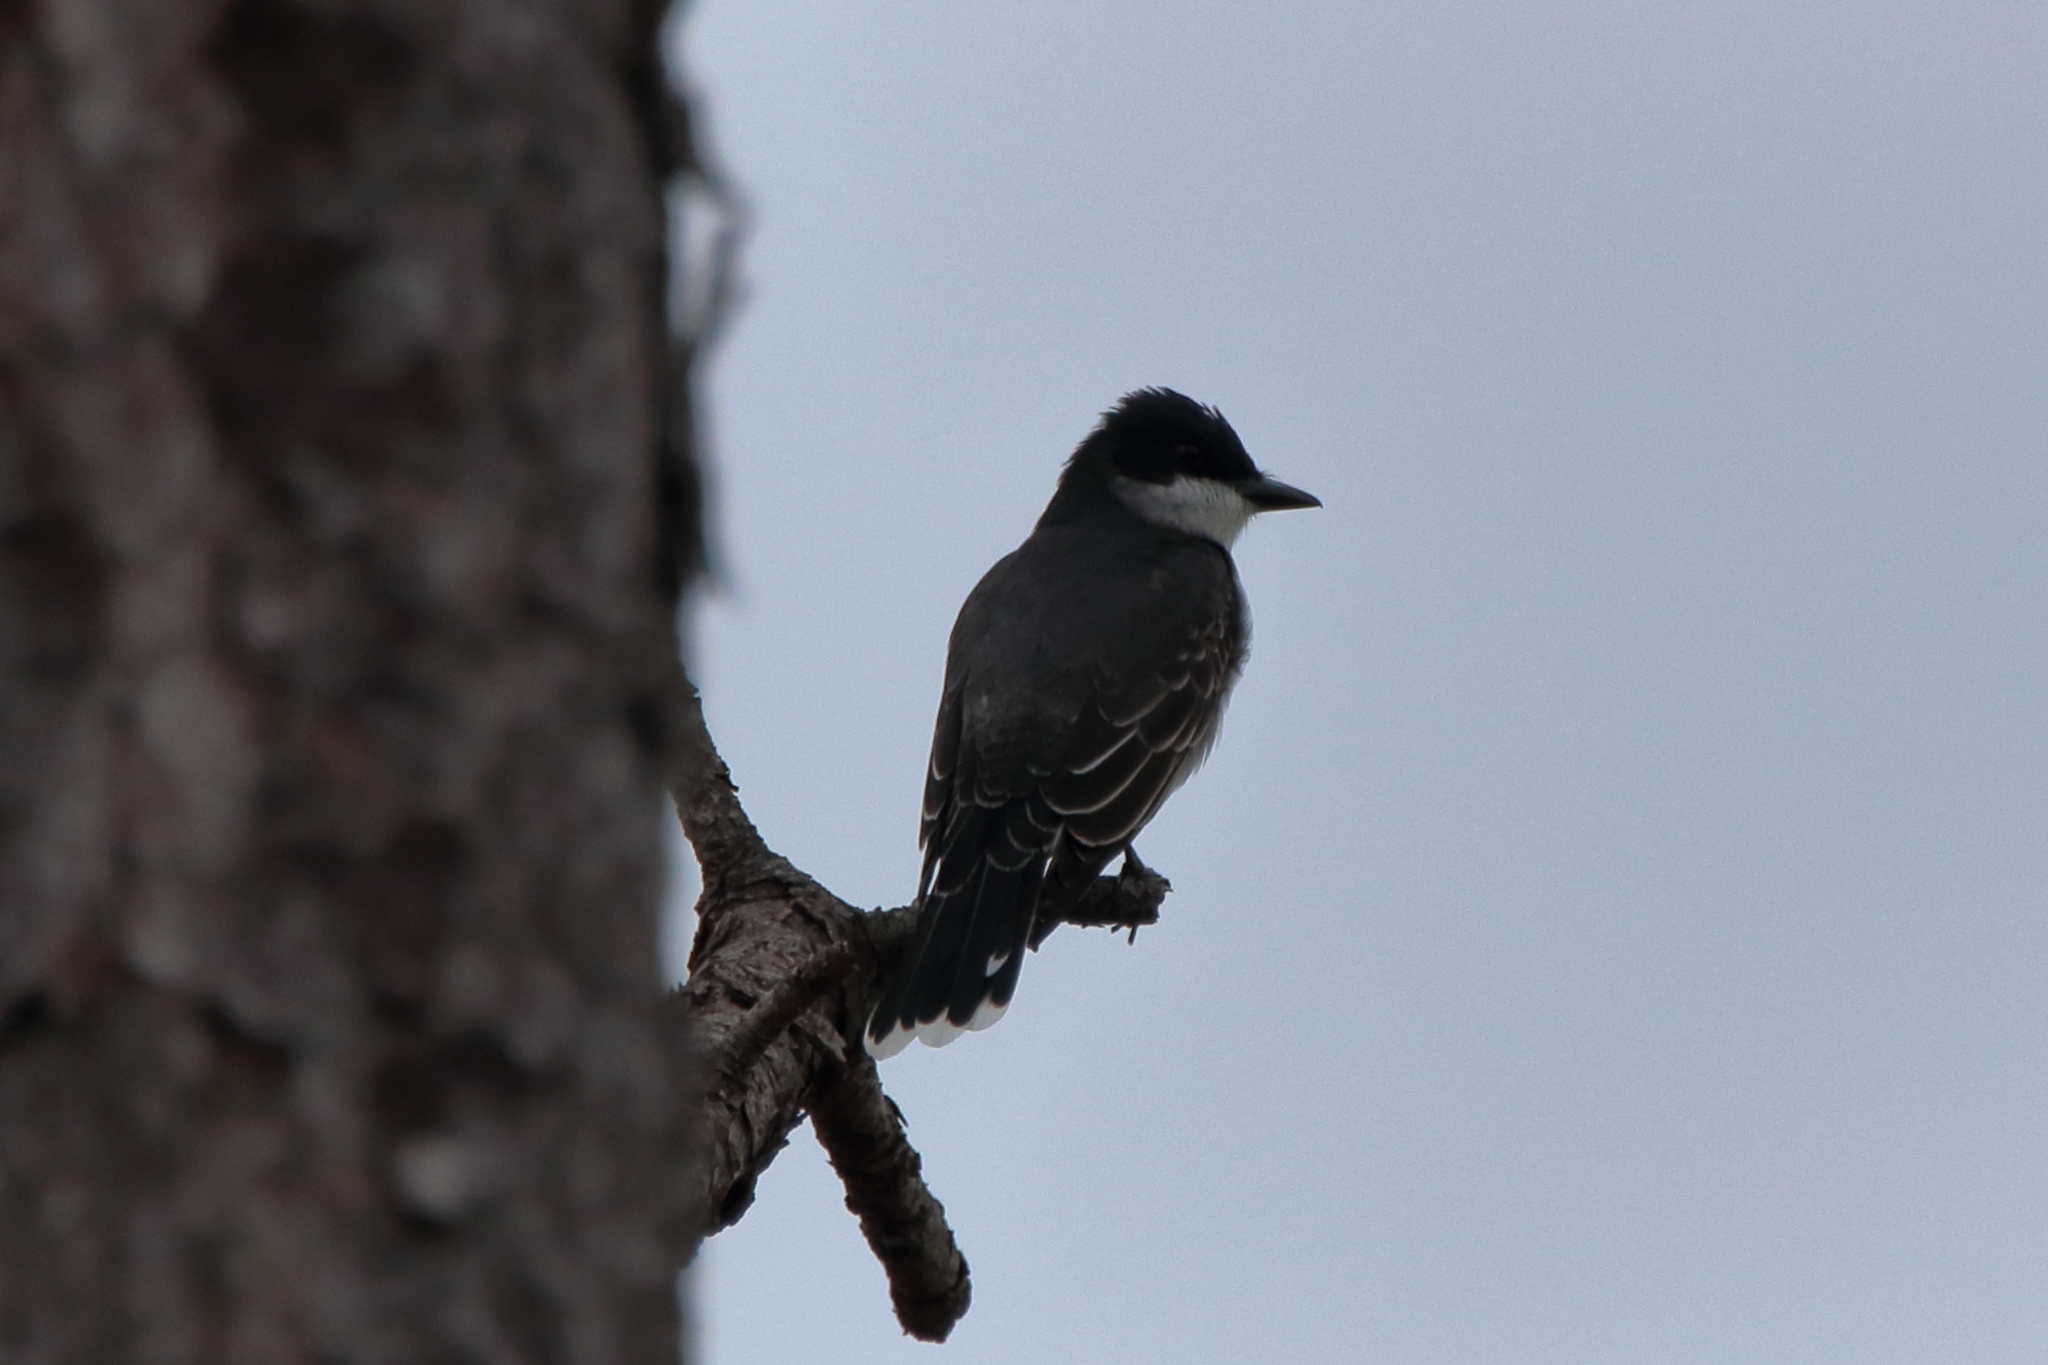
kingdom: Animalia
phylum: Chordata
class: Aves
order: Passeriformes
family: Tyrannidae
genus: Tyrannus
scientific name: Tyrannus tyrannus
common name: Eastern kingbird
